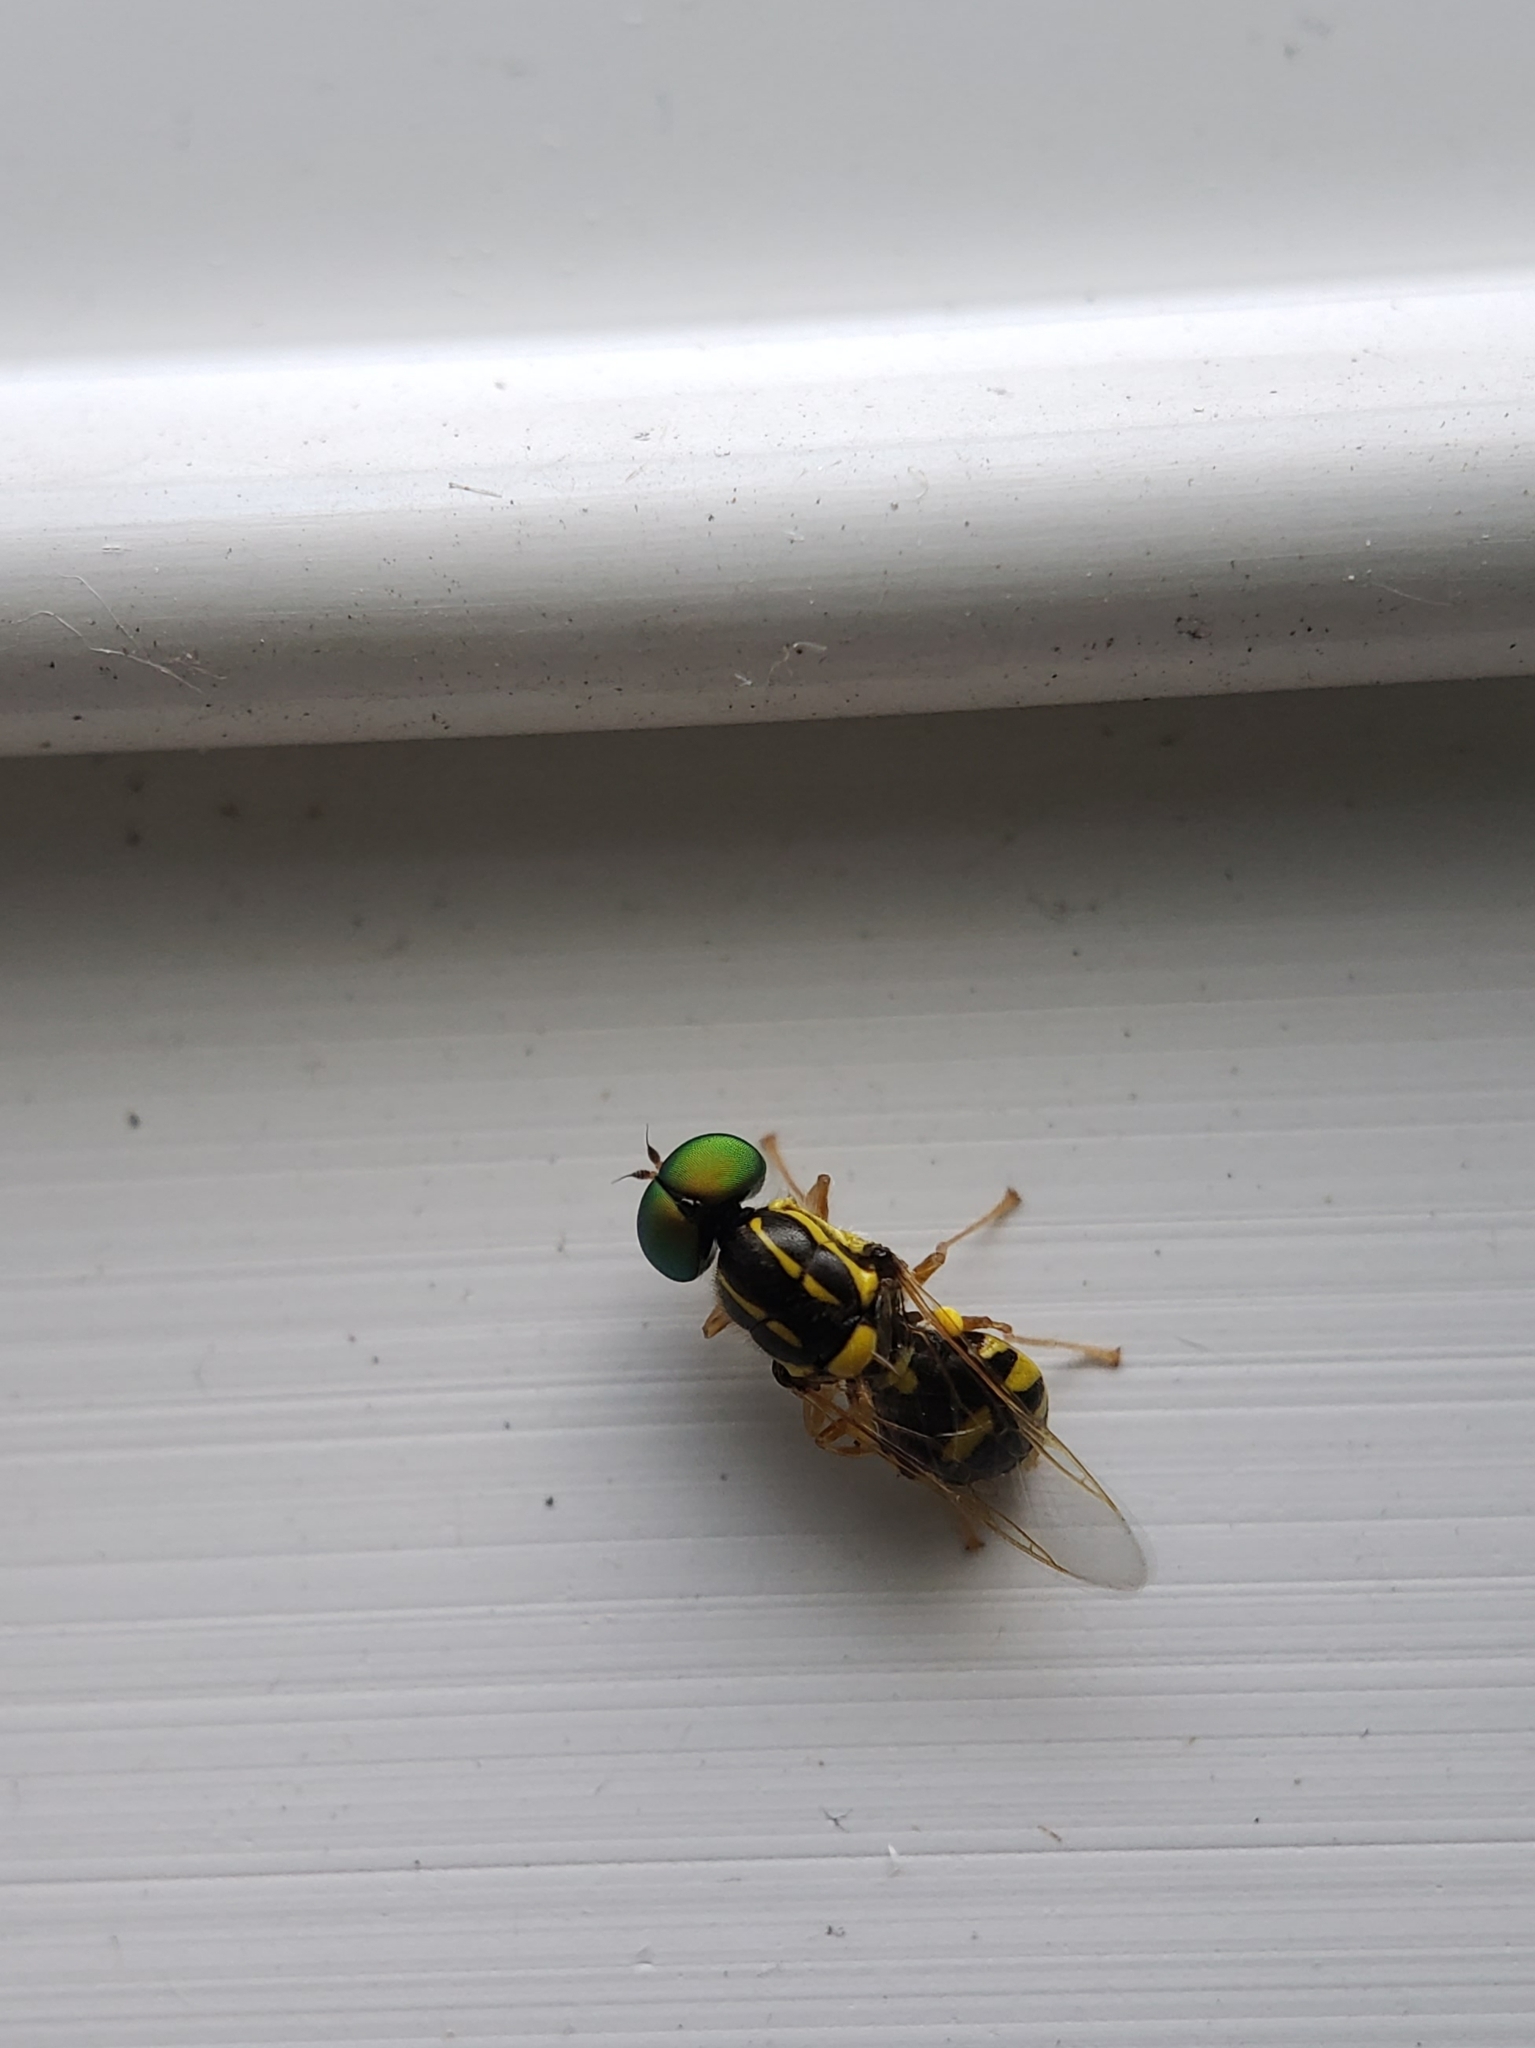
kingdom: Animalia
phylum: Arthropoda
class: Insecta
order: Diptera
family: Stratiomyidae
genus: Oxycera
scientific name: Oxycera variegata
